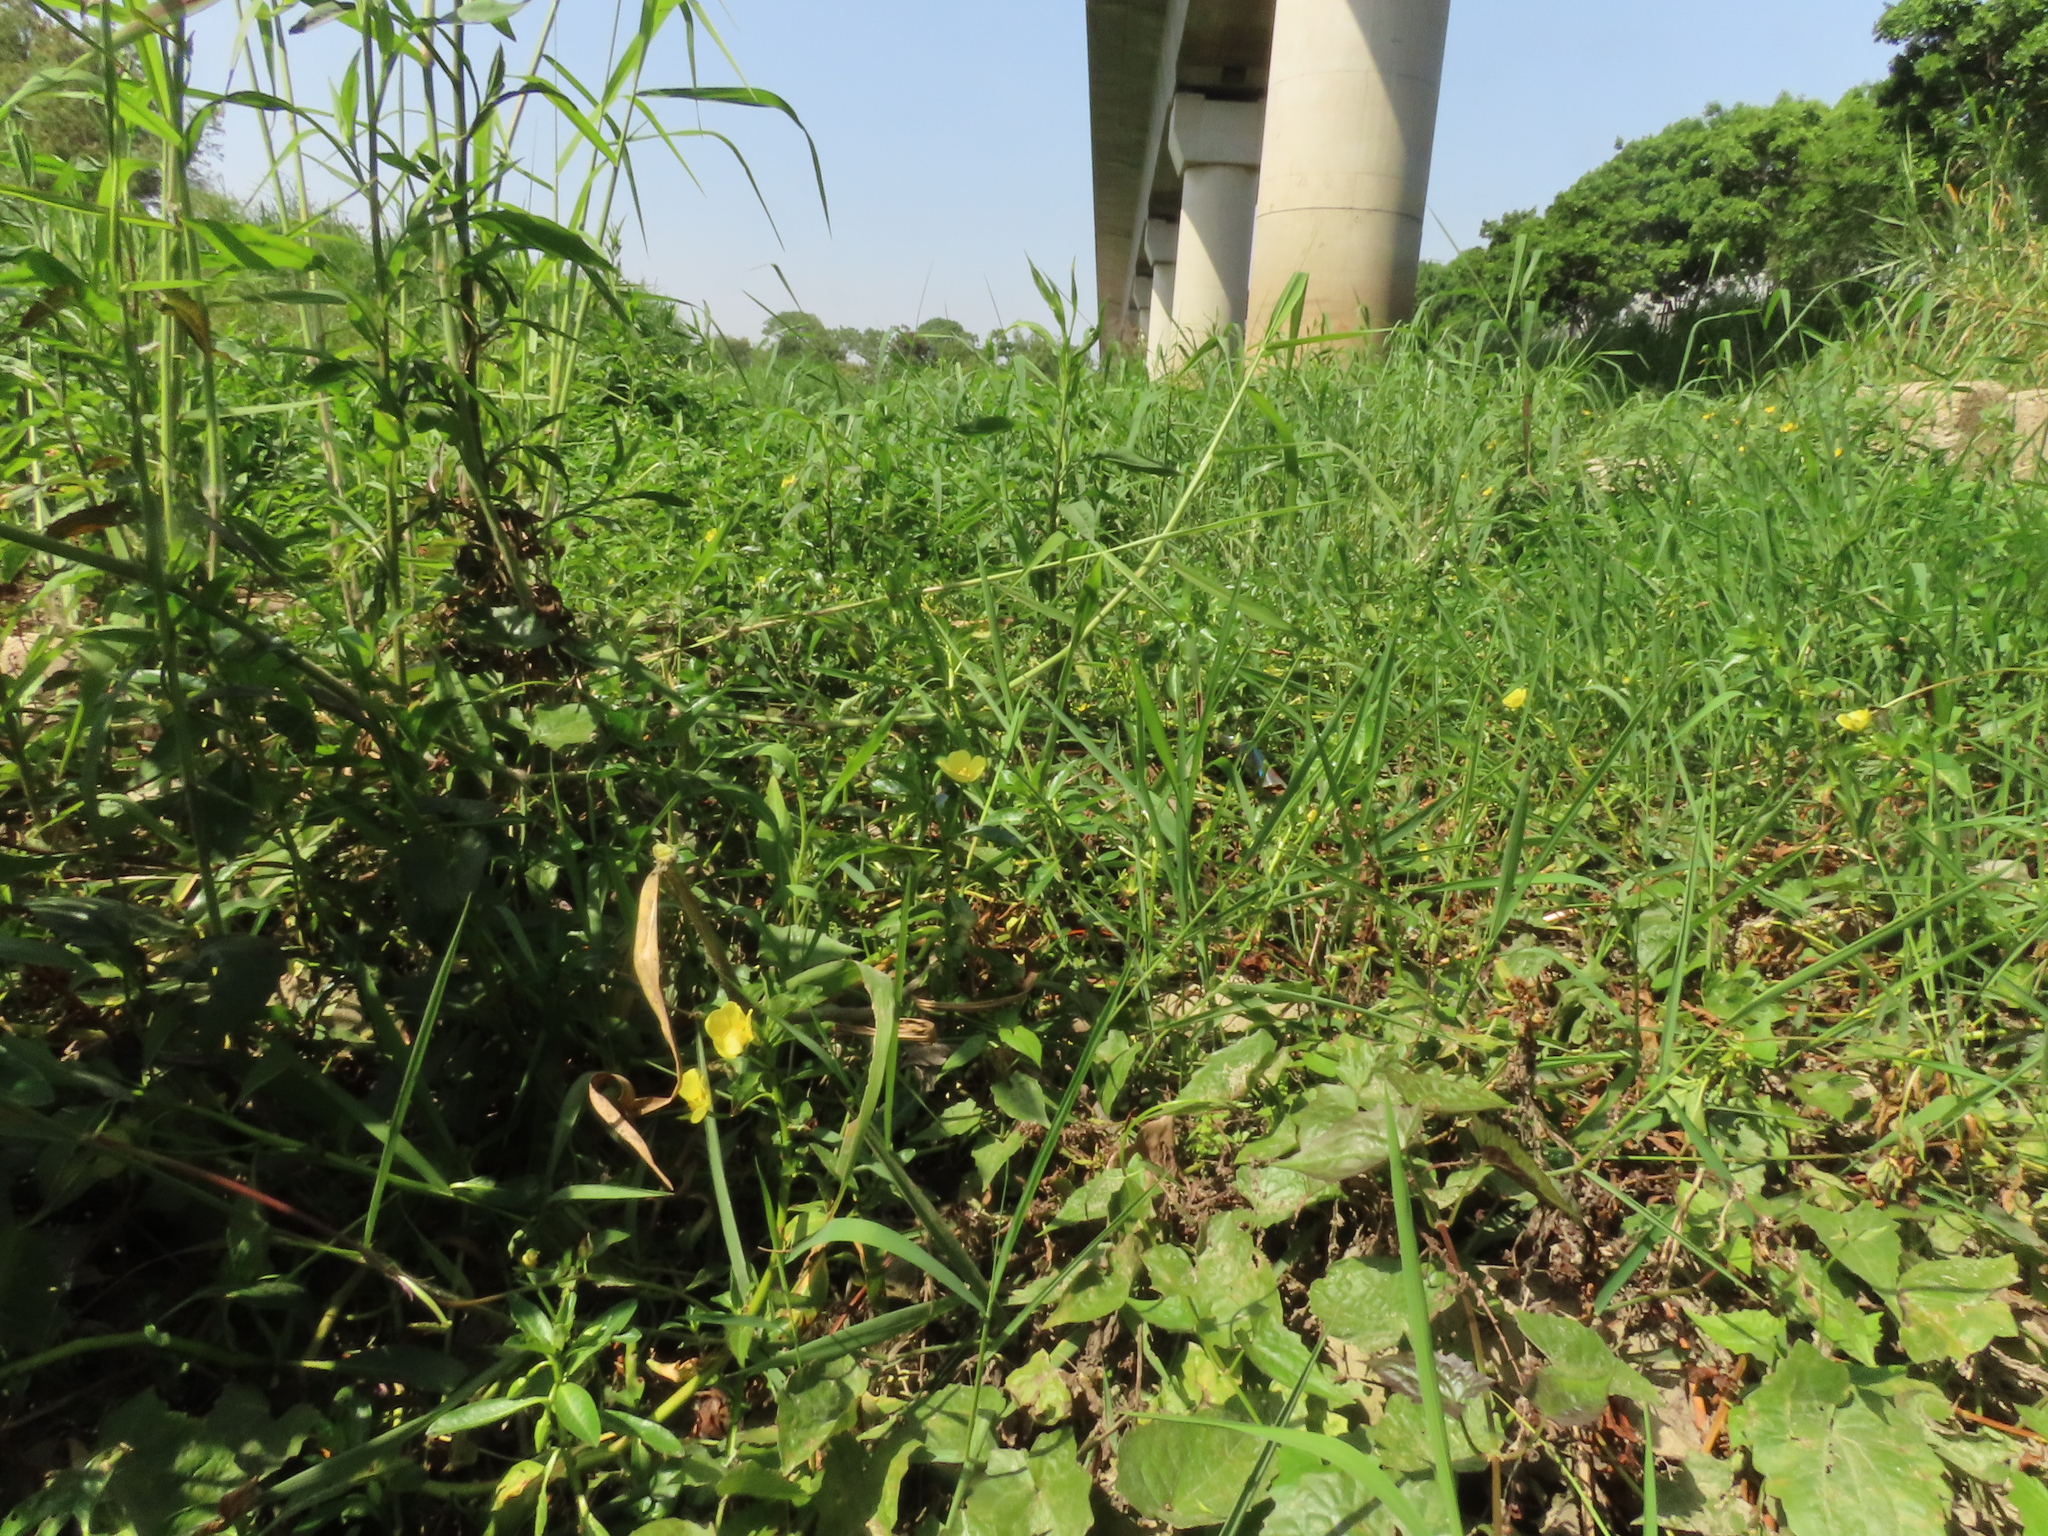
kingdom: Plantae
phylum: Tracheophyta
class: Magnoliopsida
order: Myrtales
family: Onagraceae
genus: Ludwigia
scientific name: Ludwigia taiwanensis
